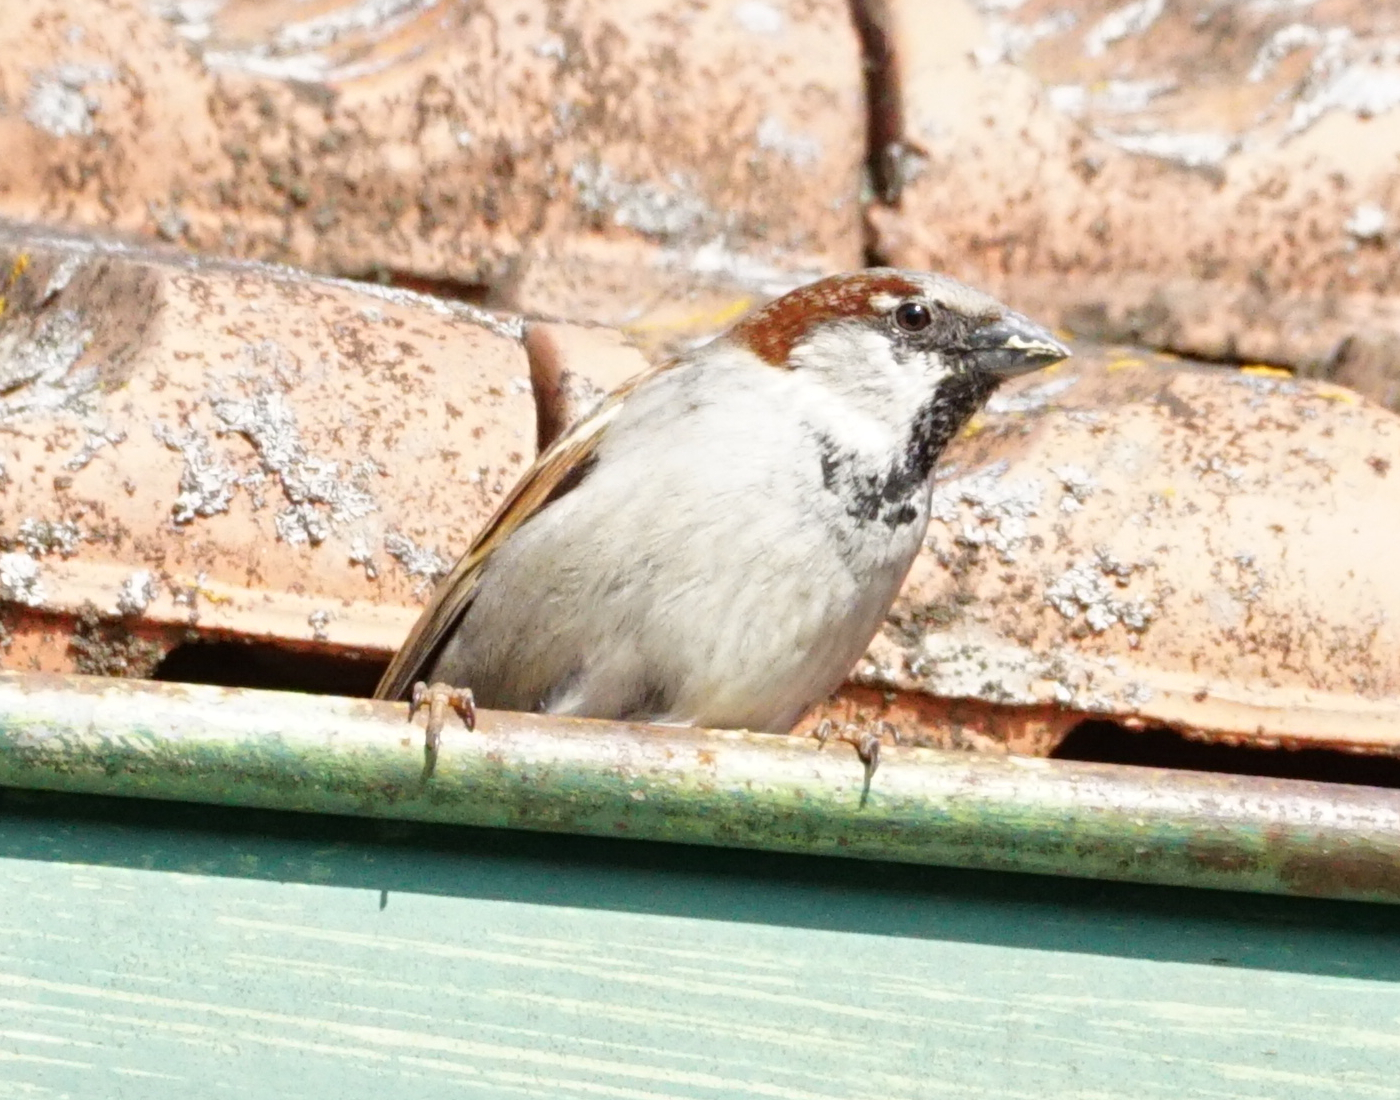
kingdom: Animalia
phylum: Chordata
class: Aves
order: Passeriformes
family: Passeridae
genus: Passer
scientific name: Passer domesticus
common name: House sparrow
